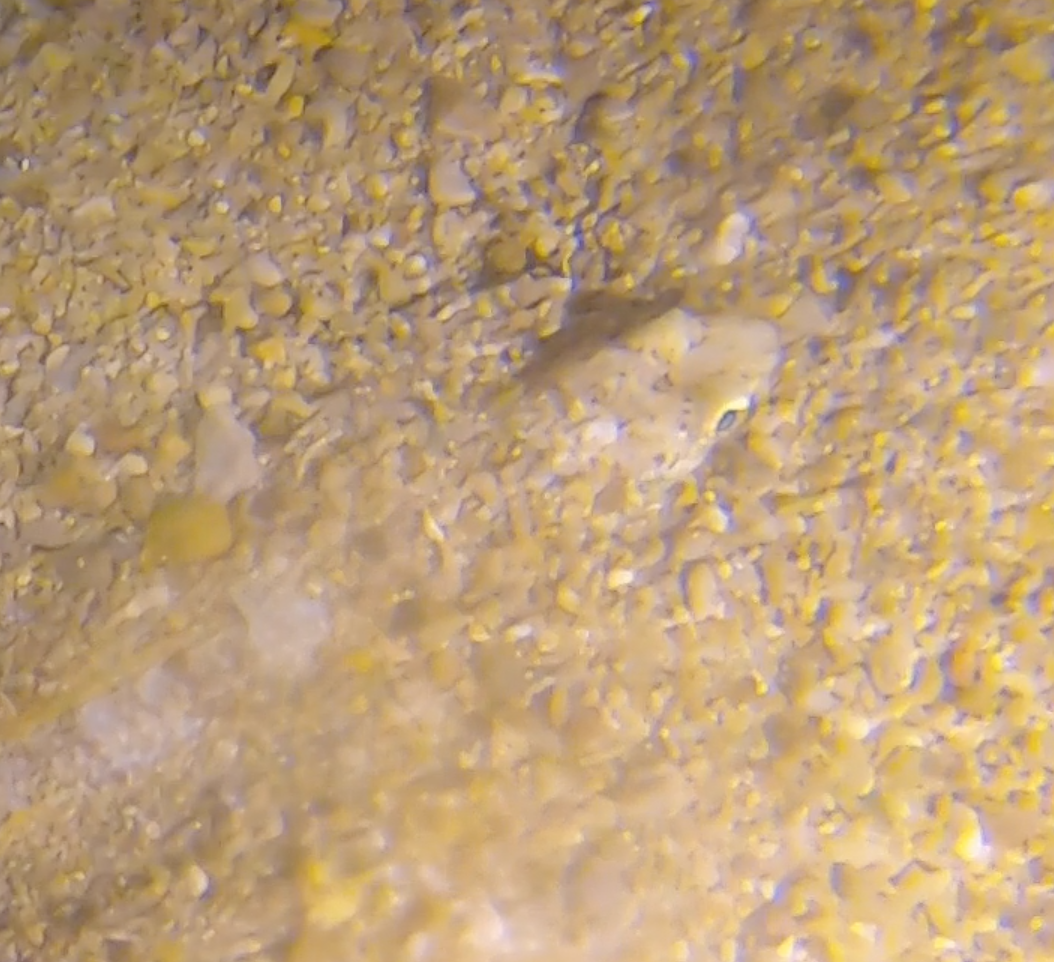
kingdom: Animalia
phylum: Chordata
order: Aulopiformes
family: Synodontidae
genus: Synodus
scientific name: Synodus saurus
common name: Atlantic lizardfish
